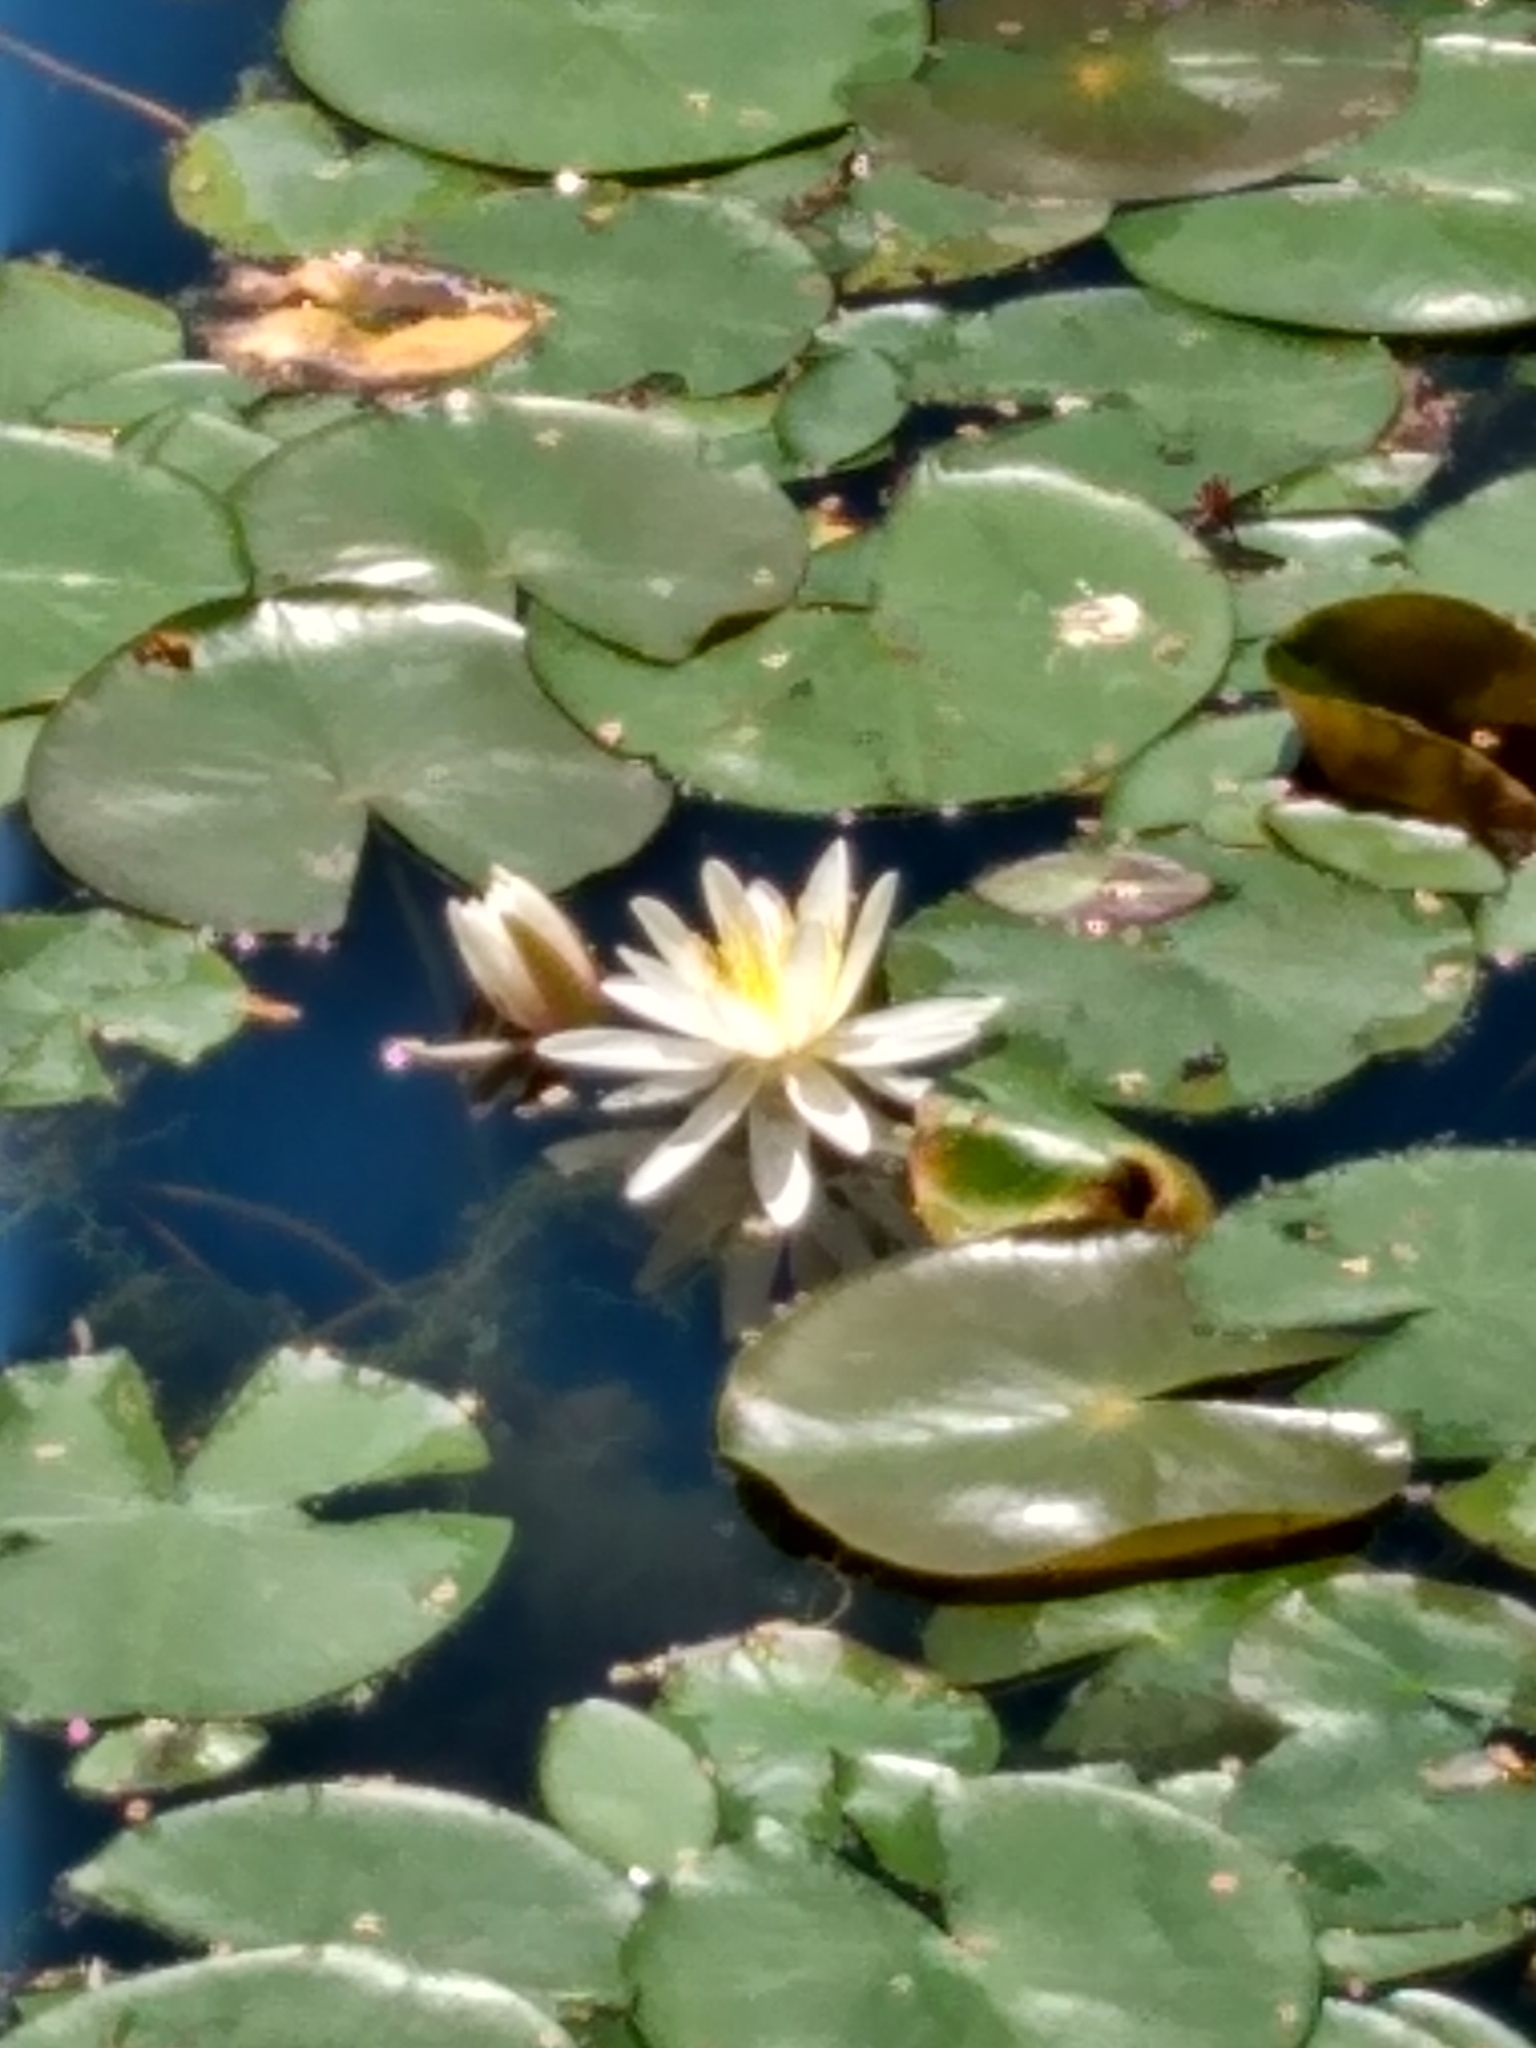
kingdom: Plantae
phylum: Tracheophyta
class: Magnoliopsida
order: Nymphaeales
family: Nymphaeaceae
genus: Nymphaea
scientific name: Nymphaea odorata
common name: Fragrant water-lily
